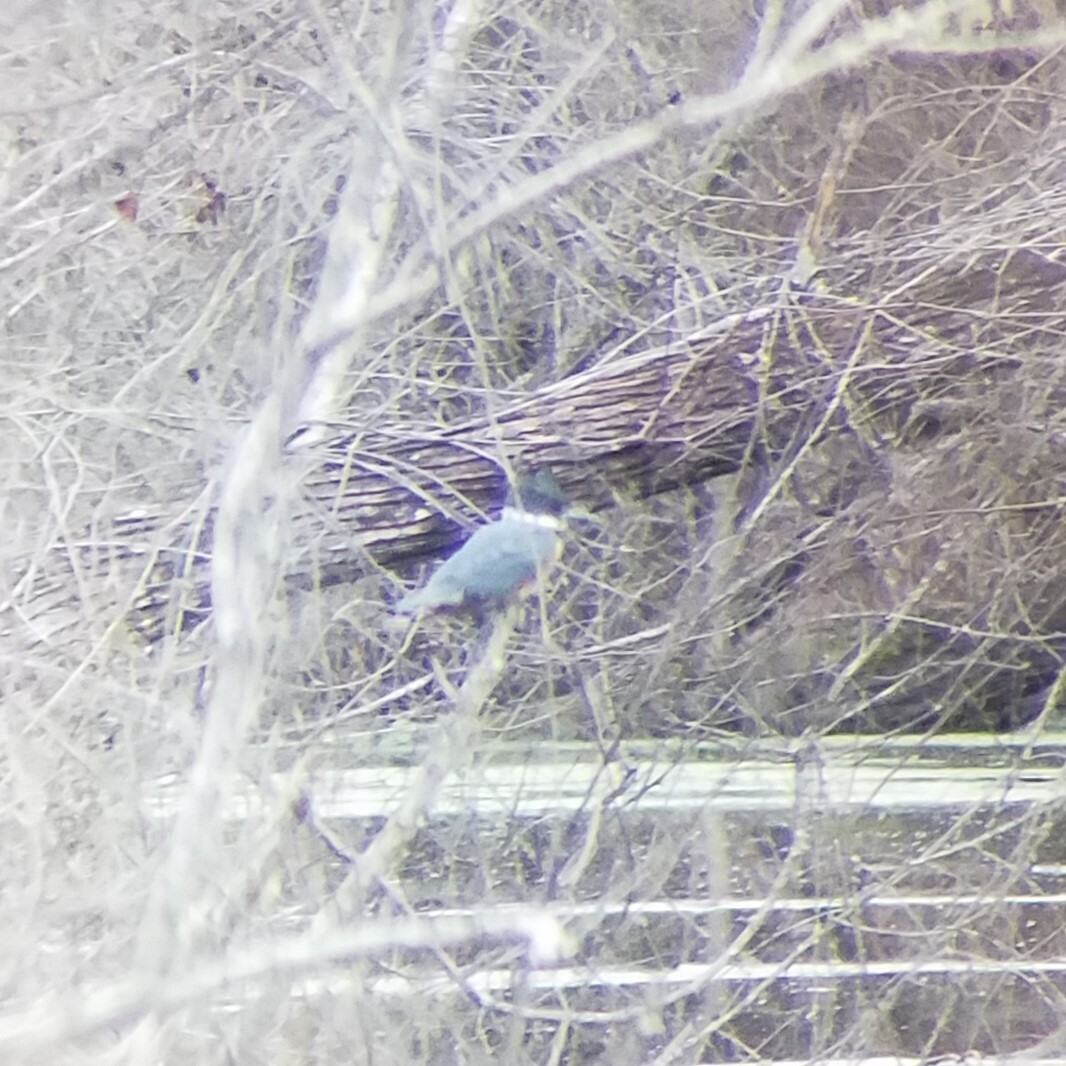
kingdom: Animalia
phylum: Chordata
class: Aves
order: Coraciiformes
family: Alcedinidae
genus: Megaceryle
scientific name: Megaceryle alcyon
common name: Belted kingfisher
